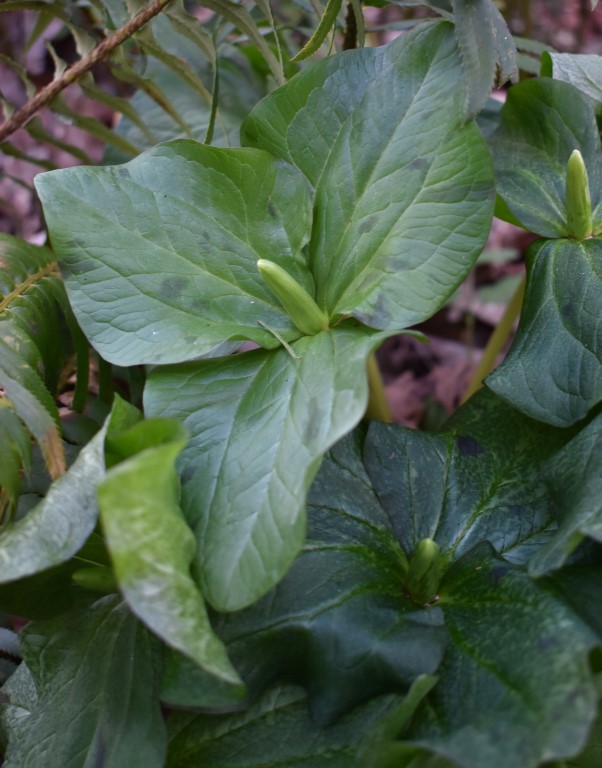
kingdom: Plantae
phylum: Tracheophyta
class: Liliopsida
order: Liliales
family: Melanthiaceae
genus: Trillium
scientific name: Trillium albidum
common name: Freeman's trillium
